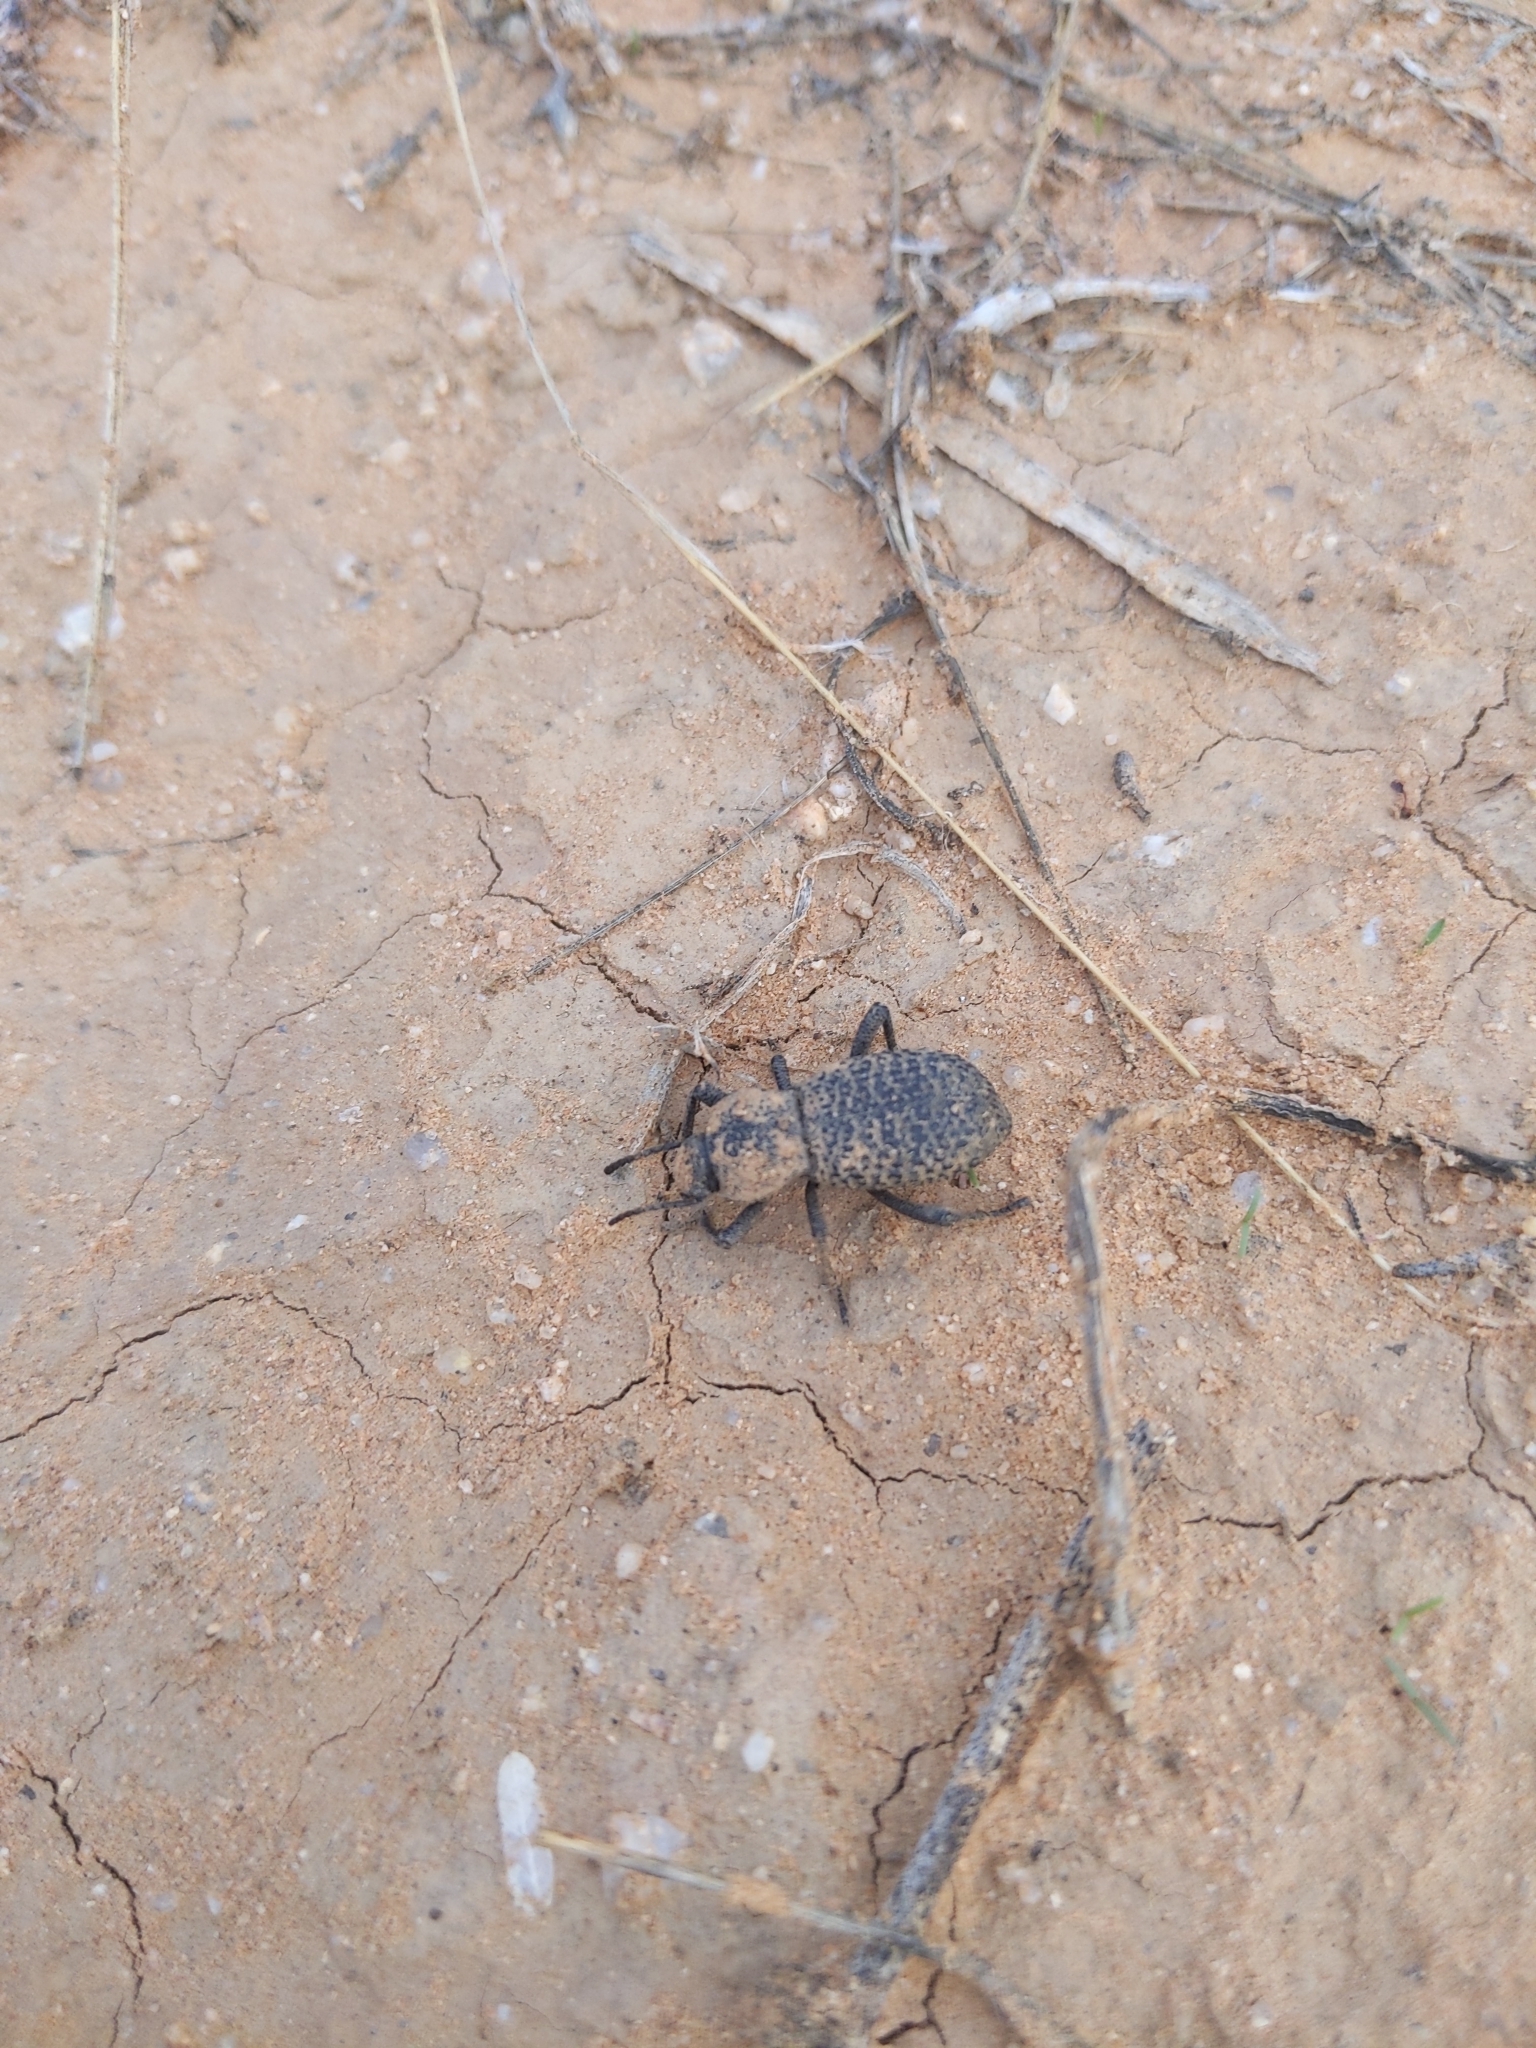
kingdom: Animalia
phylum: Arthropoda
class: Insecta
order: Coleoptera
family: Tenebrionidae
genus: Cryptoglossa
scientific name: Cryptoglossa variolosa
